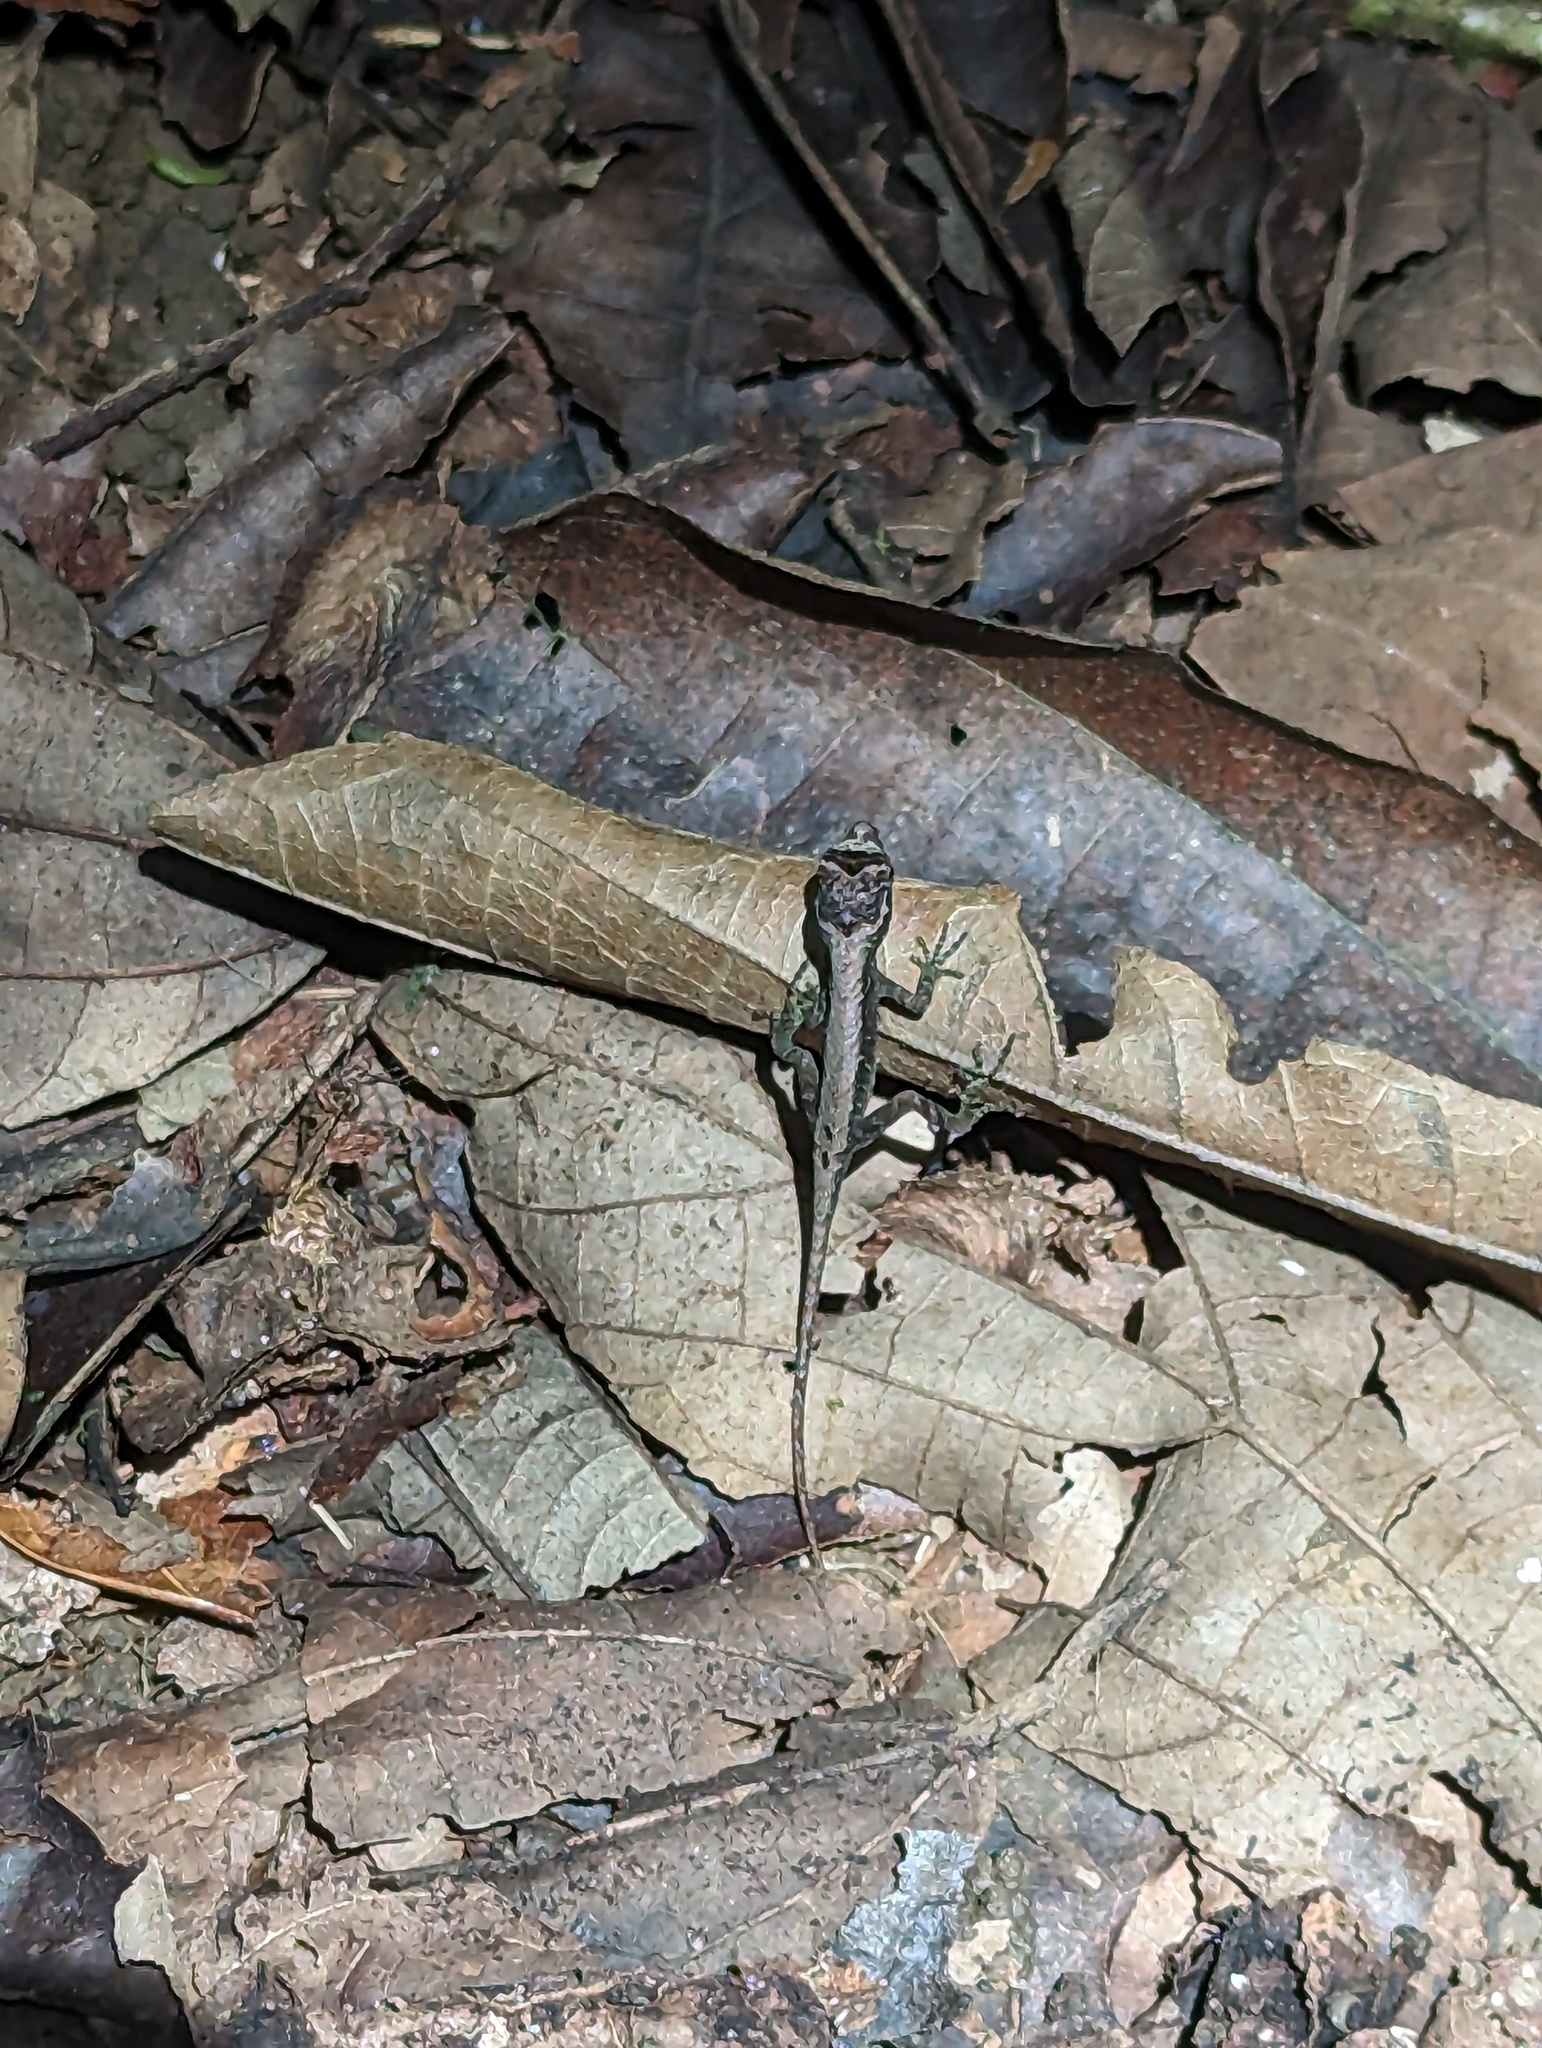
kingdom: Animalia
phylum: Chordata
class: Squamata
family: Dactyloidae
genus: Anolis
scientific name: Anolis humilis
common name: Humble anole
